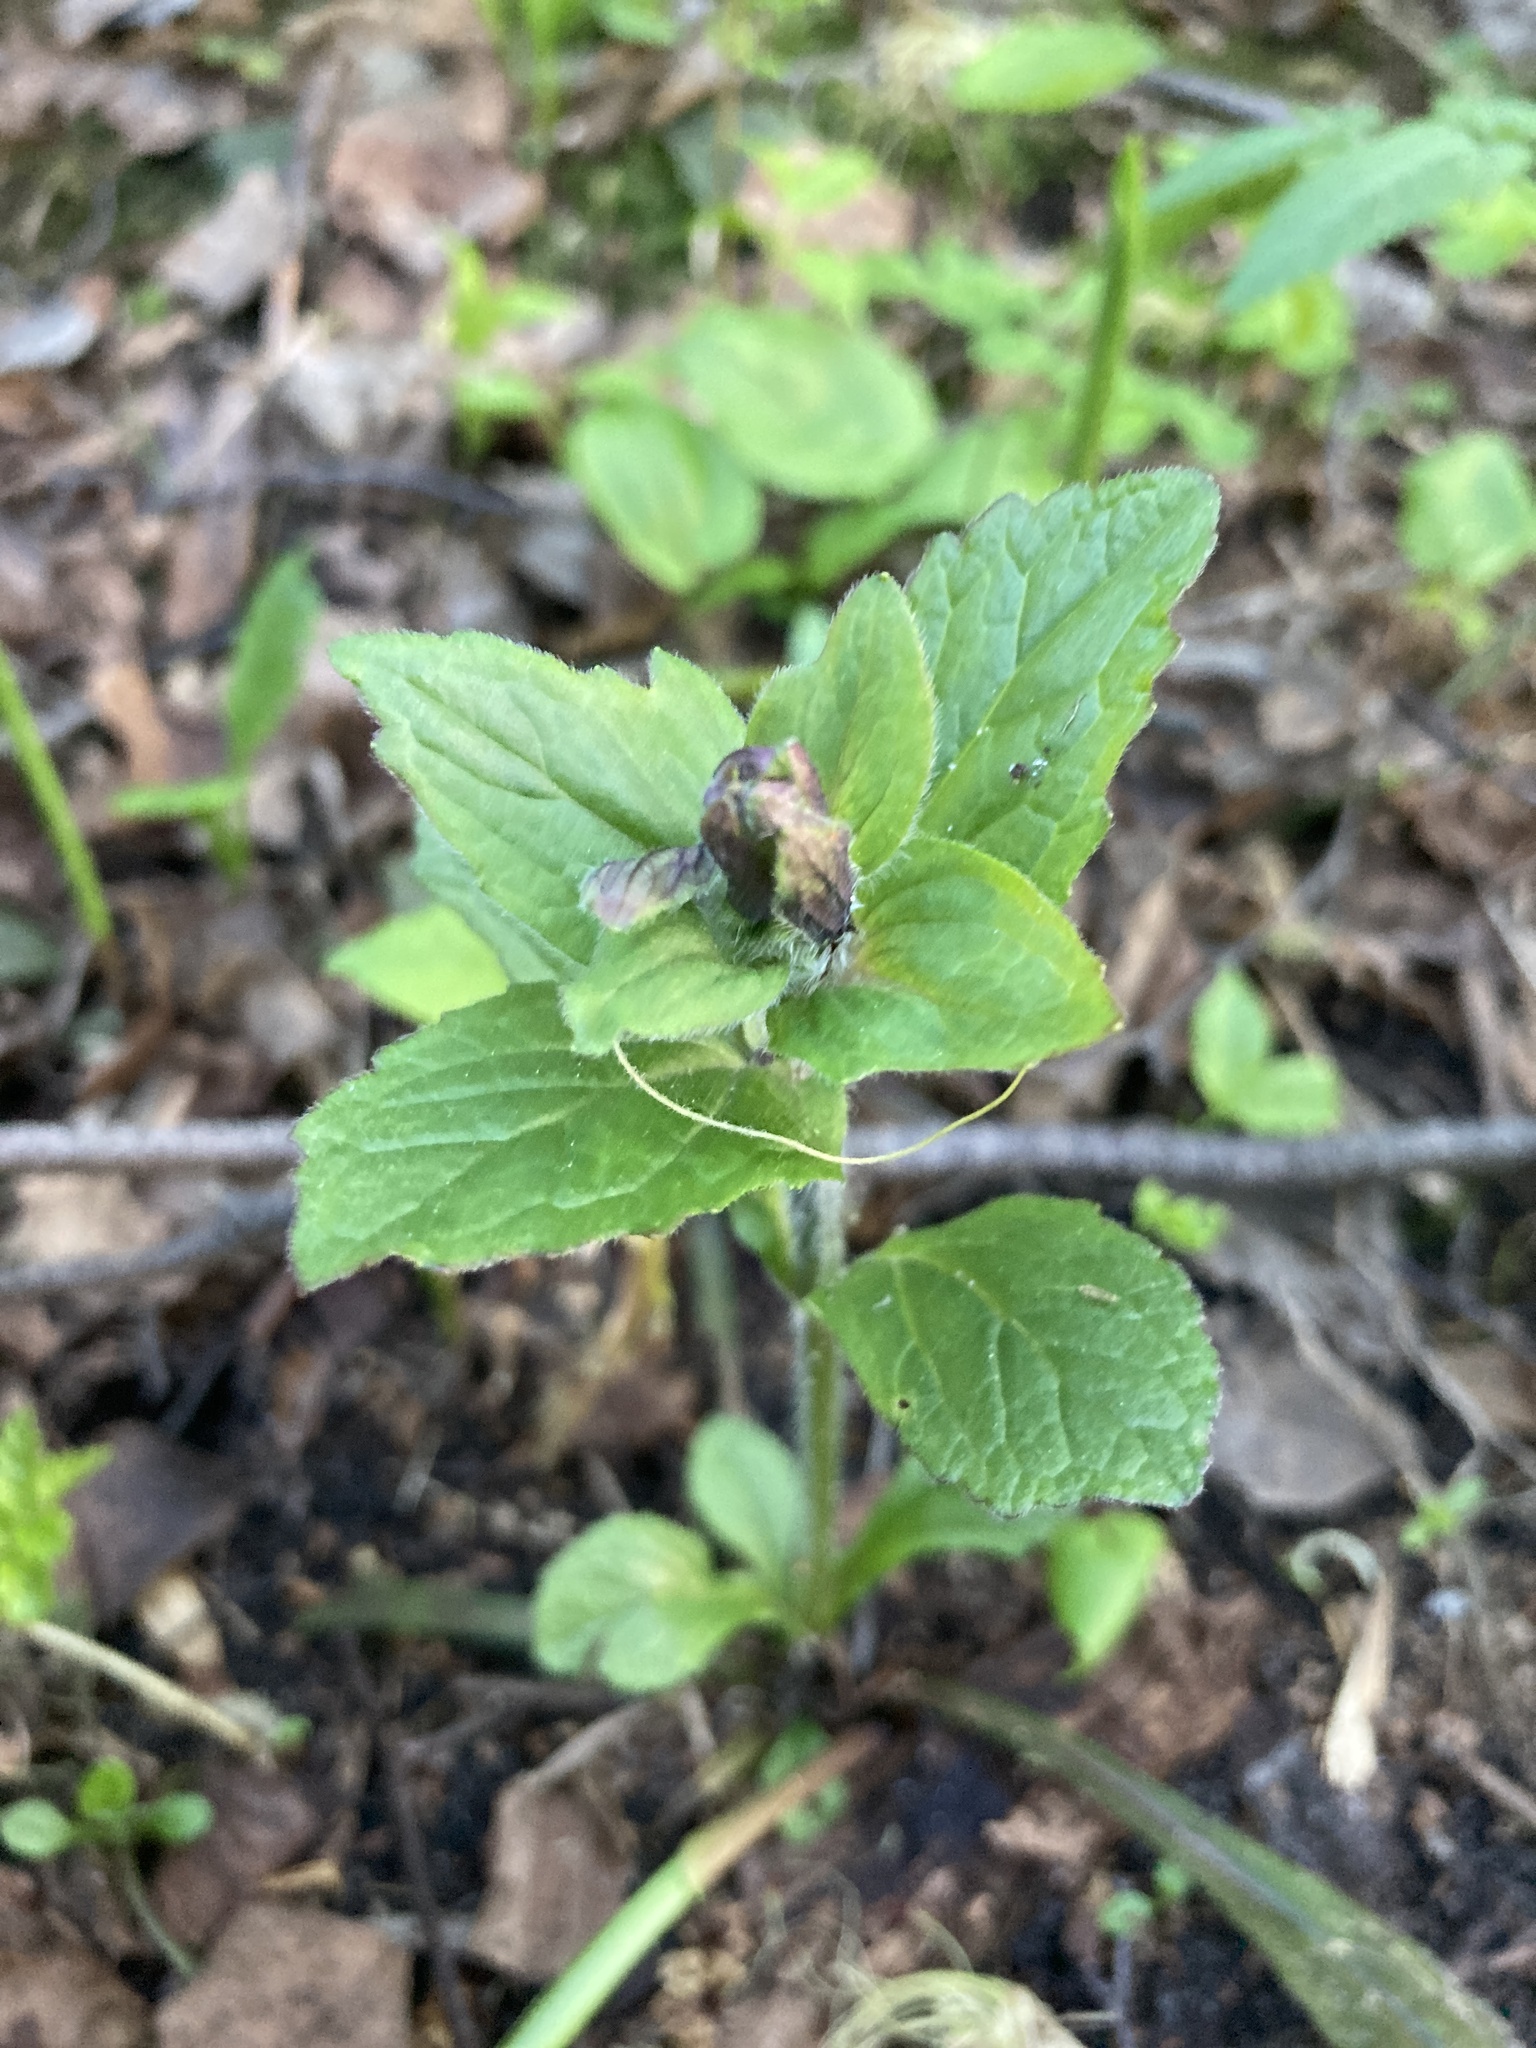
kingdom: Plantae
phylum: Tracheophyta
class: Magnoliopsida
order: Lamiales
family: Lamiaceae
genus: Ajuga
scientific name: Ajuga reptans
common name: Bugle
